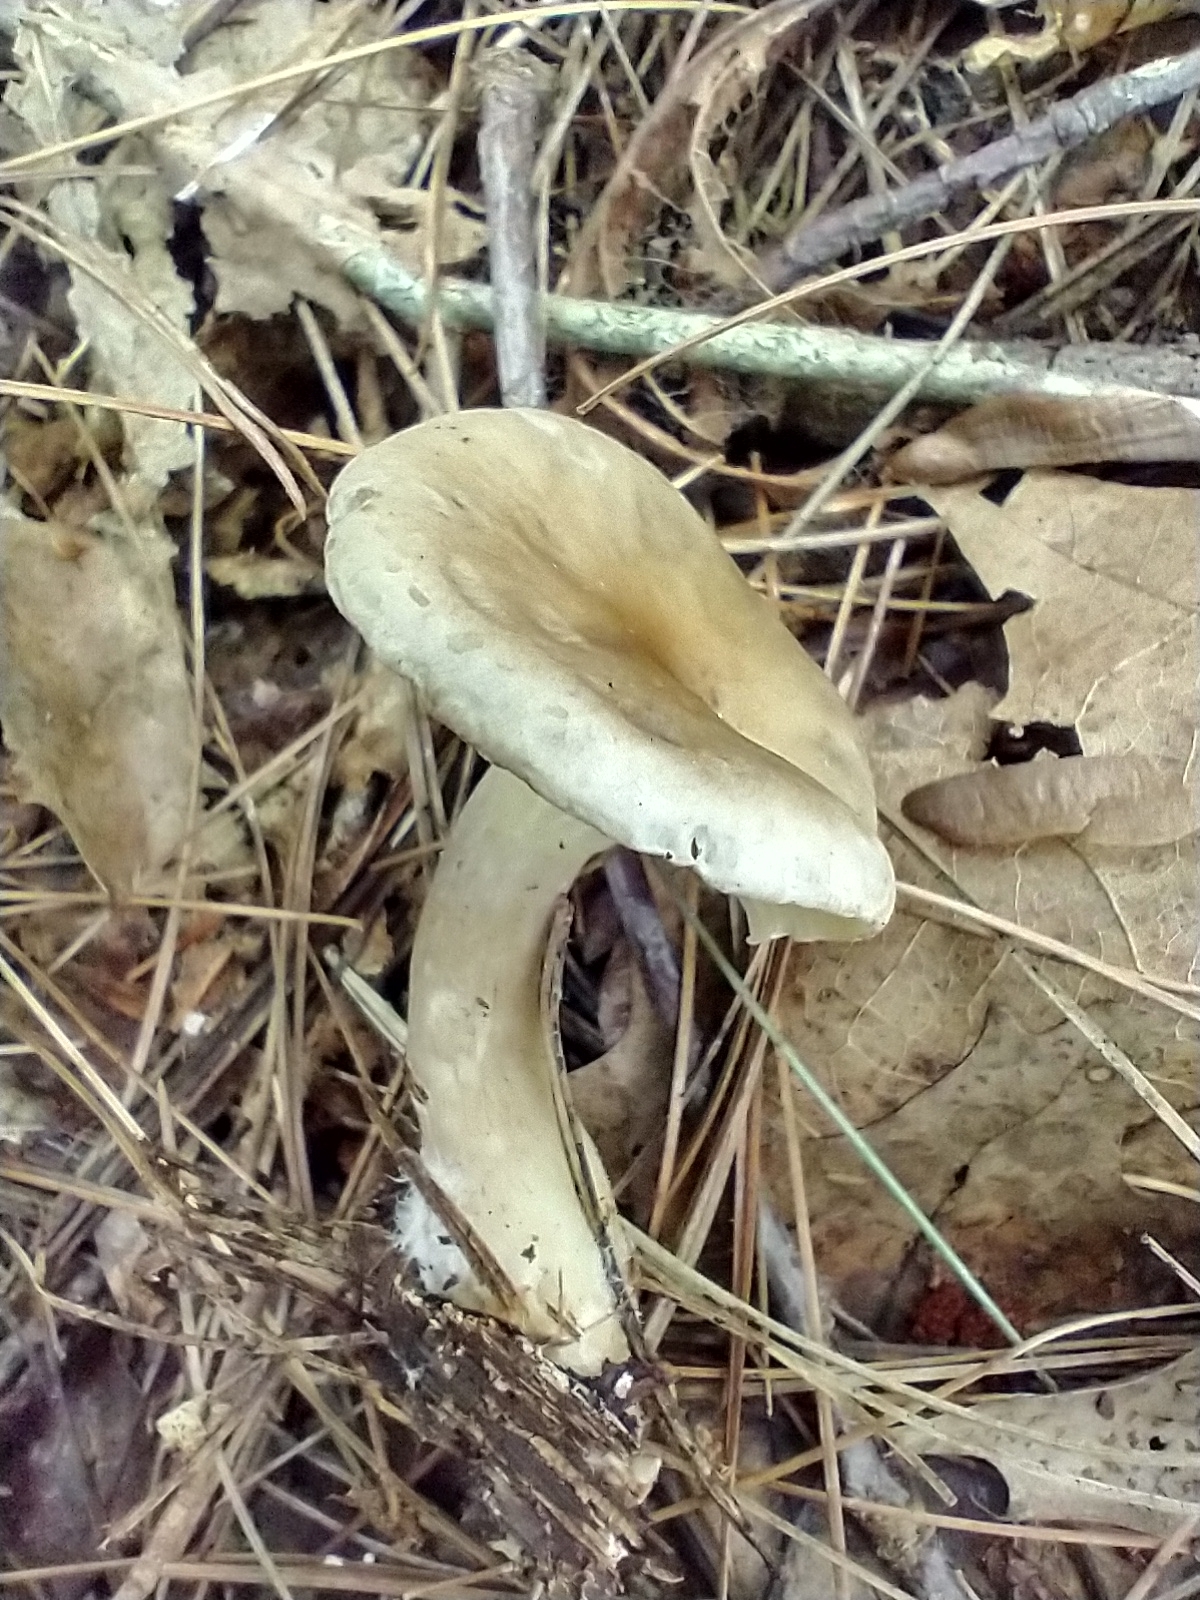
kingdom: Fungi
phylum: Basidiomycota
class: Agaricomycetes
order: Agaricales
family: Hygrophoraceae
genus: Ampulloclitocybe
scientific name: Ampulloclitocybe clavipes
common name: Club foot
